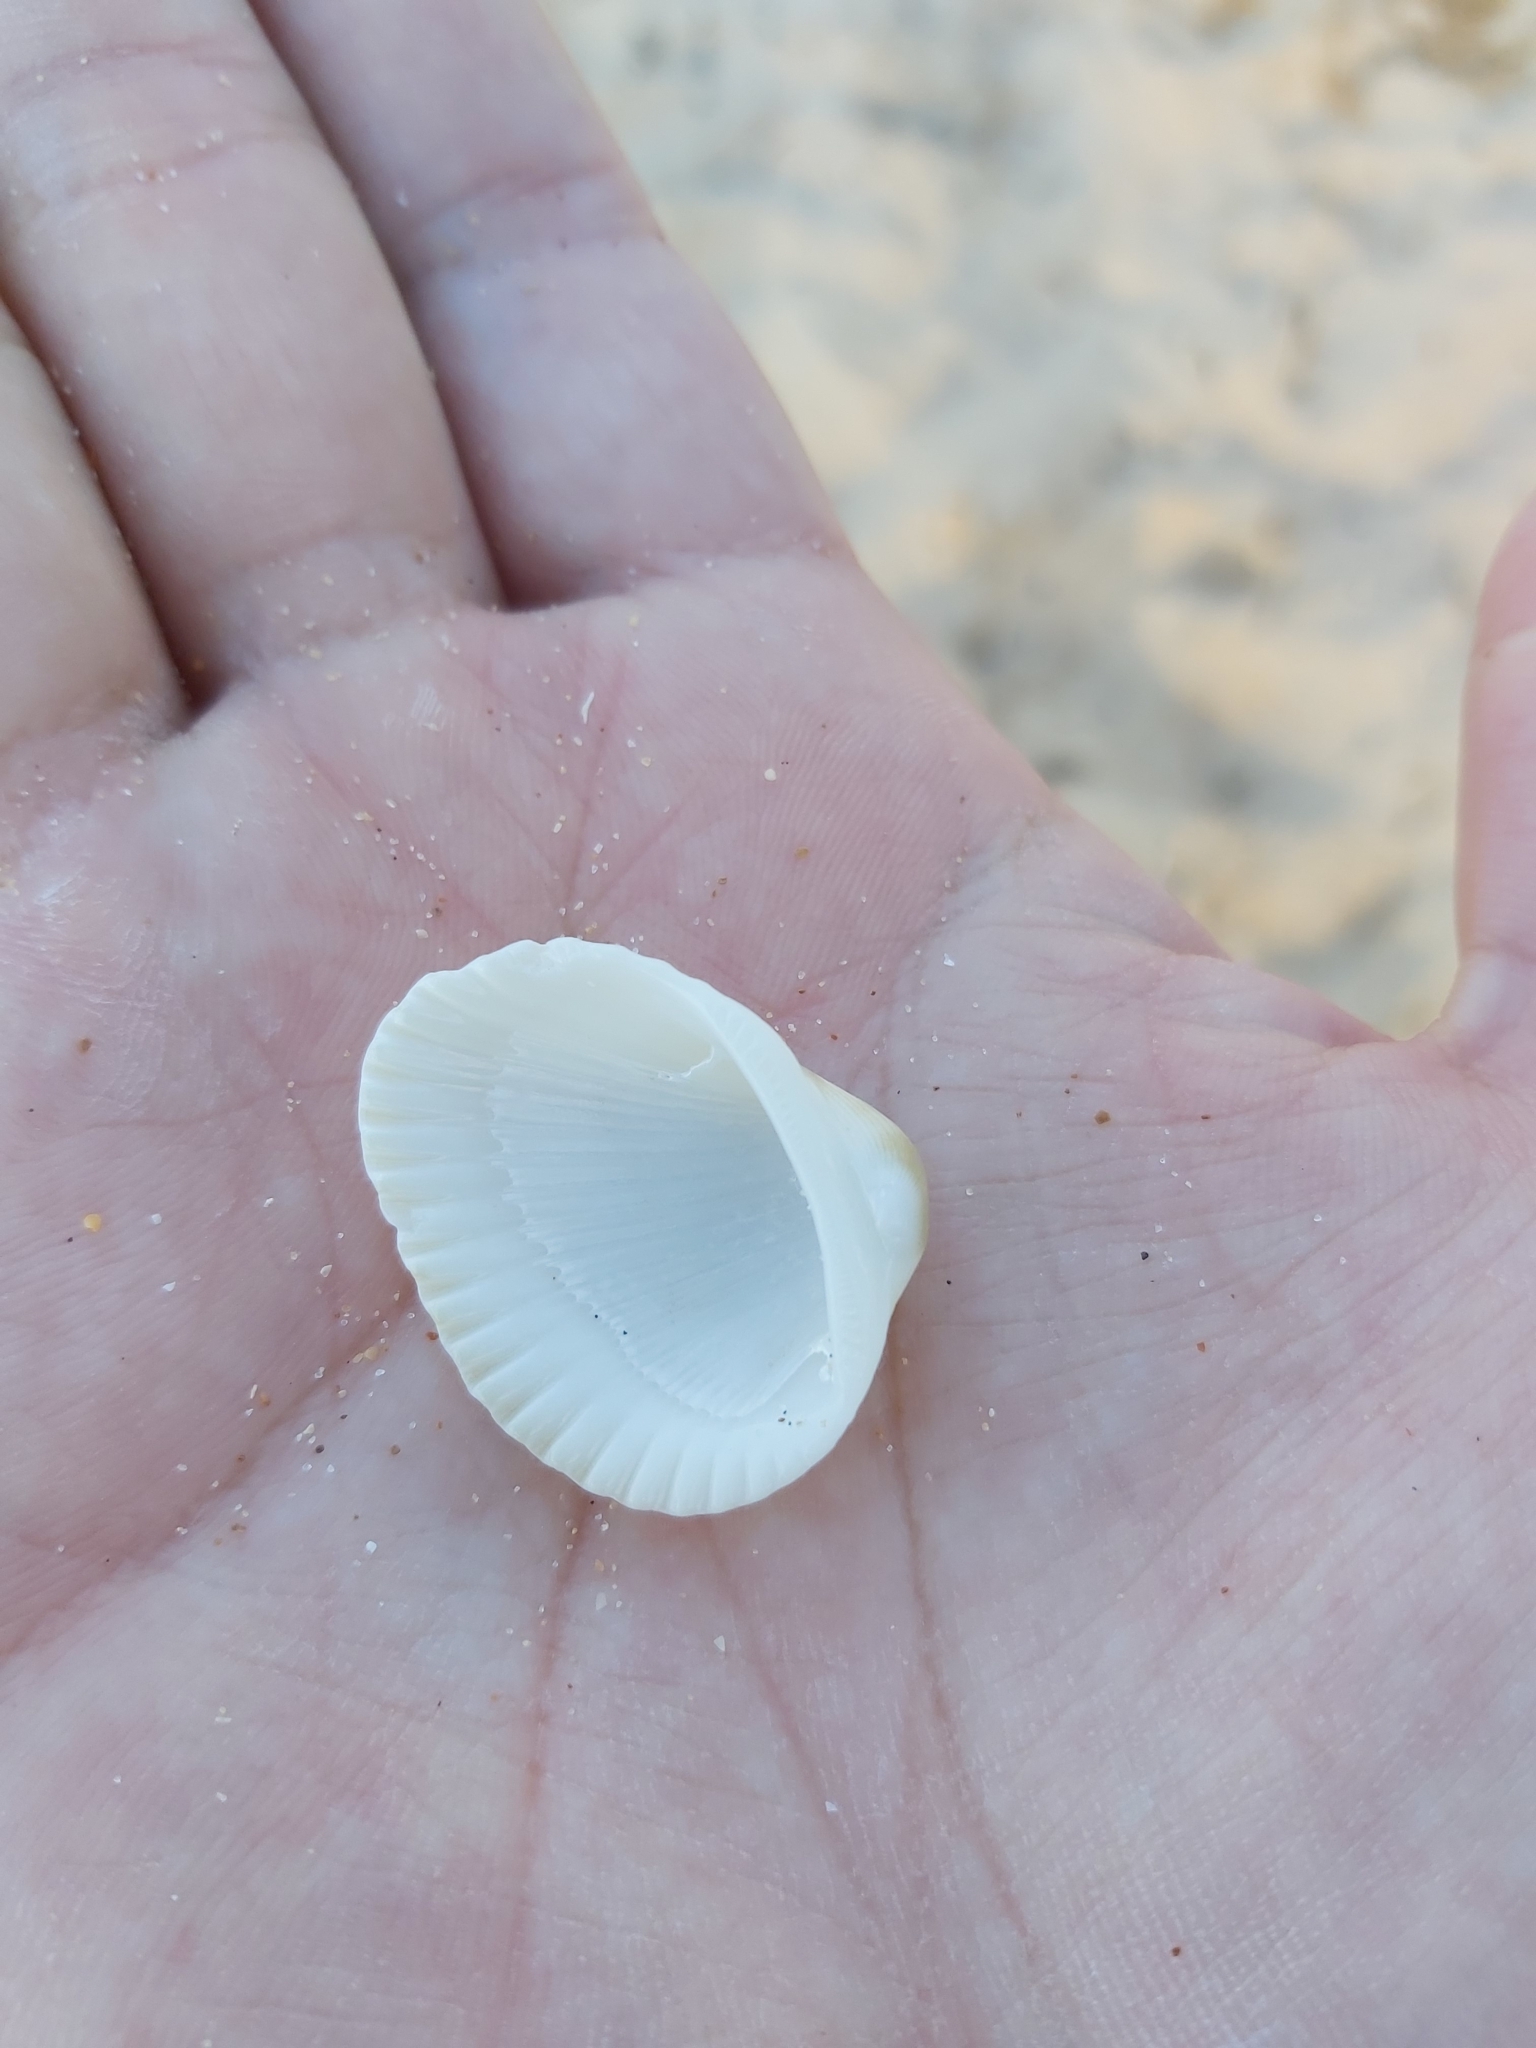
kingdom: Animalia
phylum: Mollusca
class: Bivalvia
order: Arcida
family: Arcidae
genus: Anadara
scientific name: Anadara trapezia
